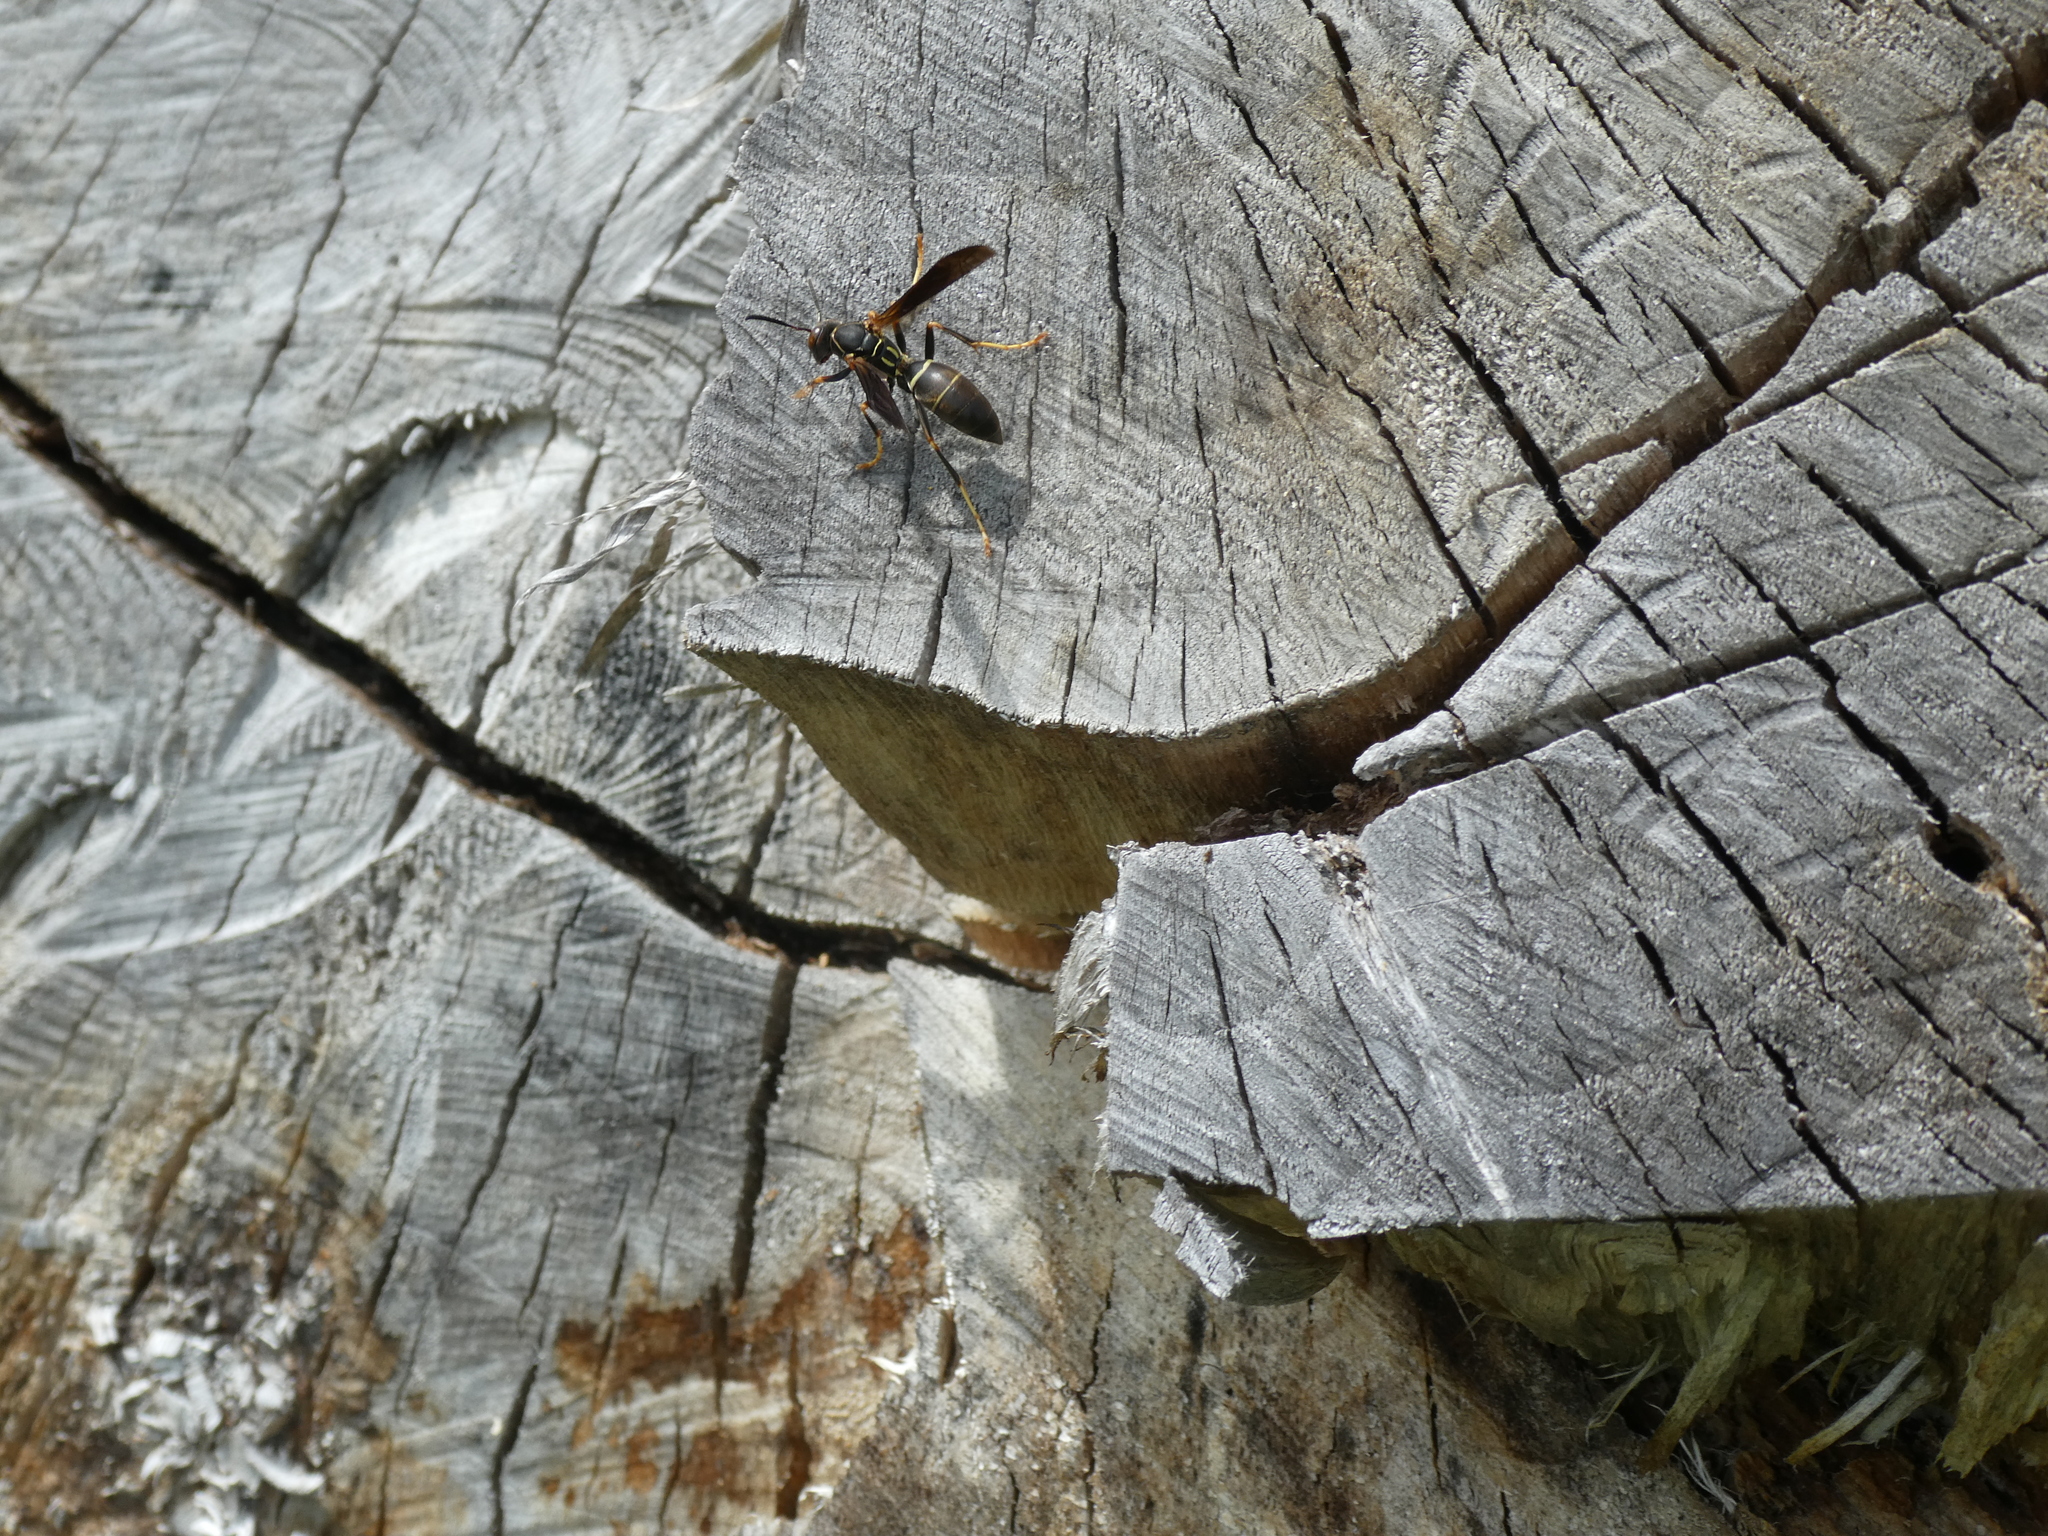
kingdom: Animalia
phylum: Arthropoda
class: Insecta
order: Hymenoptera
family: Eumenidae
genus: Polistes
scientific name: Polistes fuscatus
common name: Dark paper wasp
